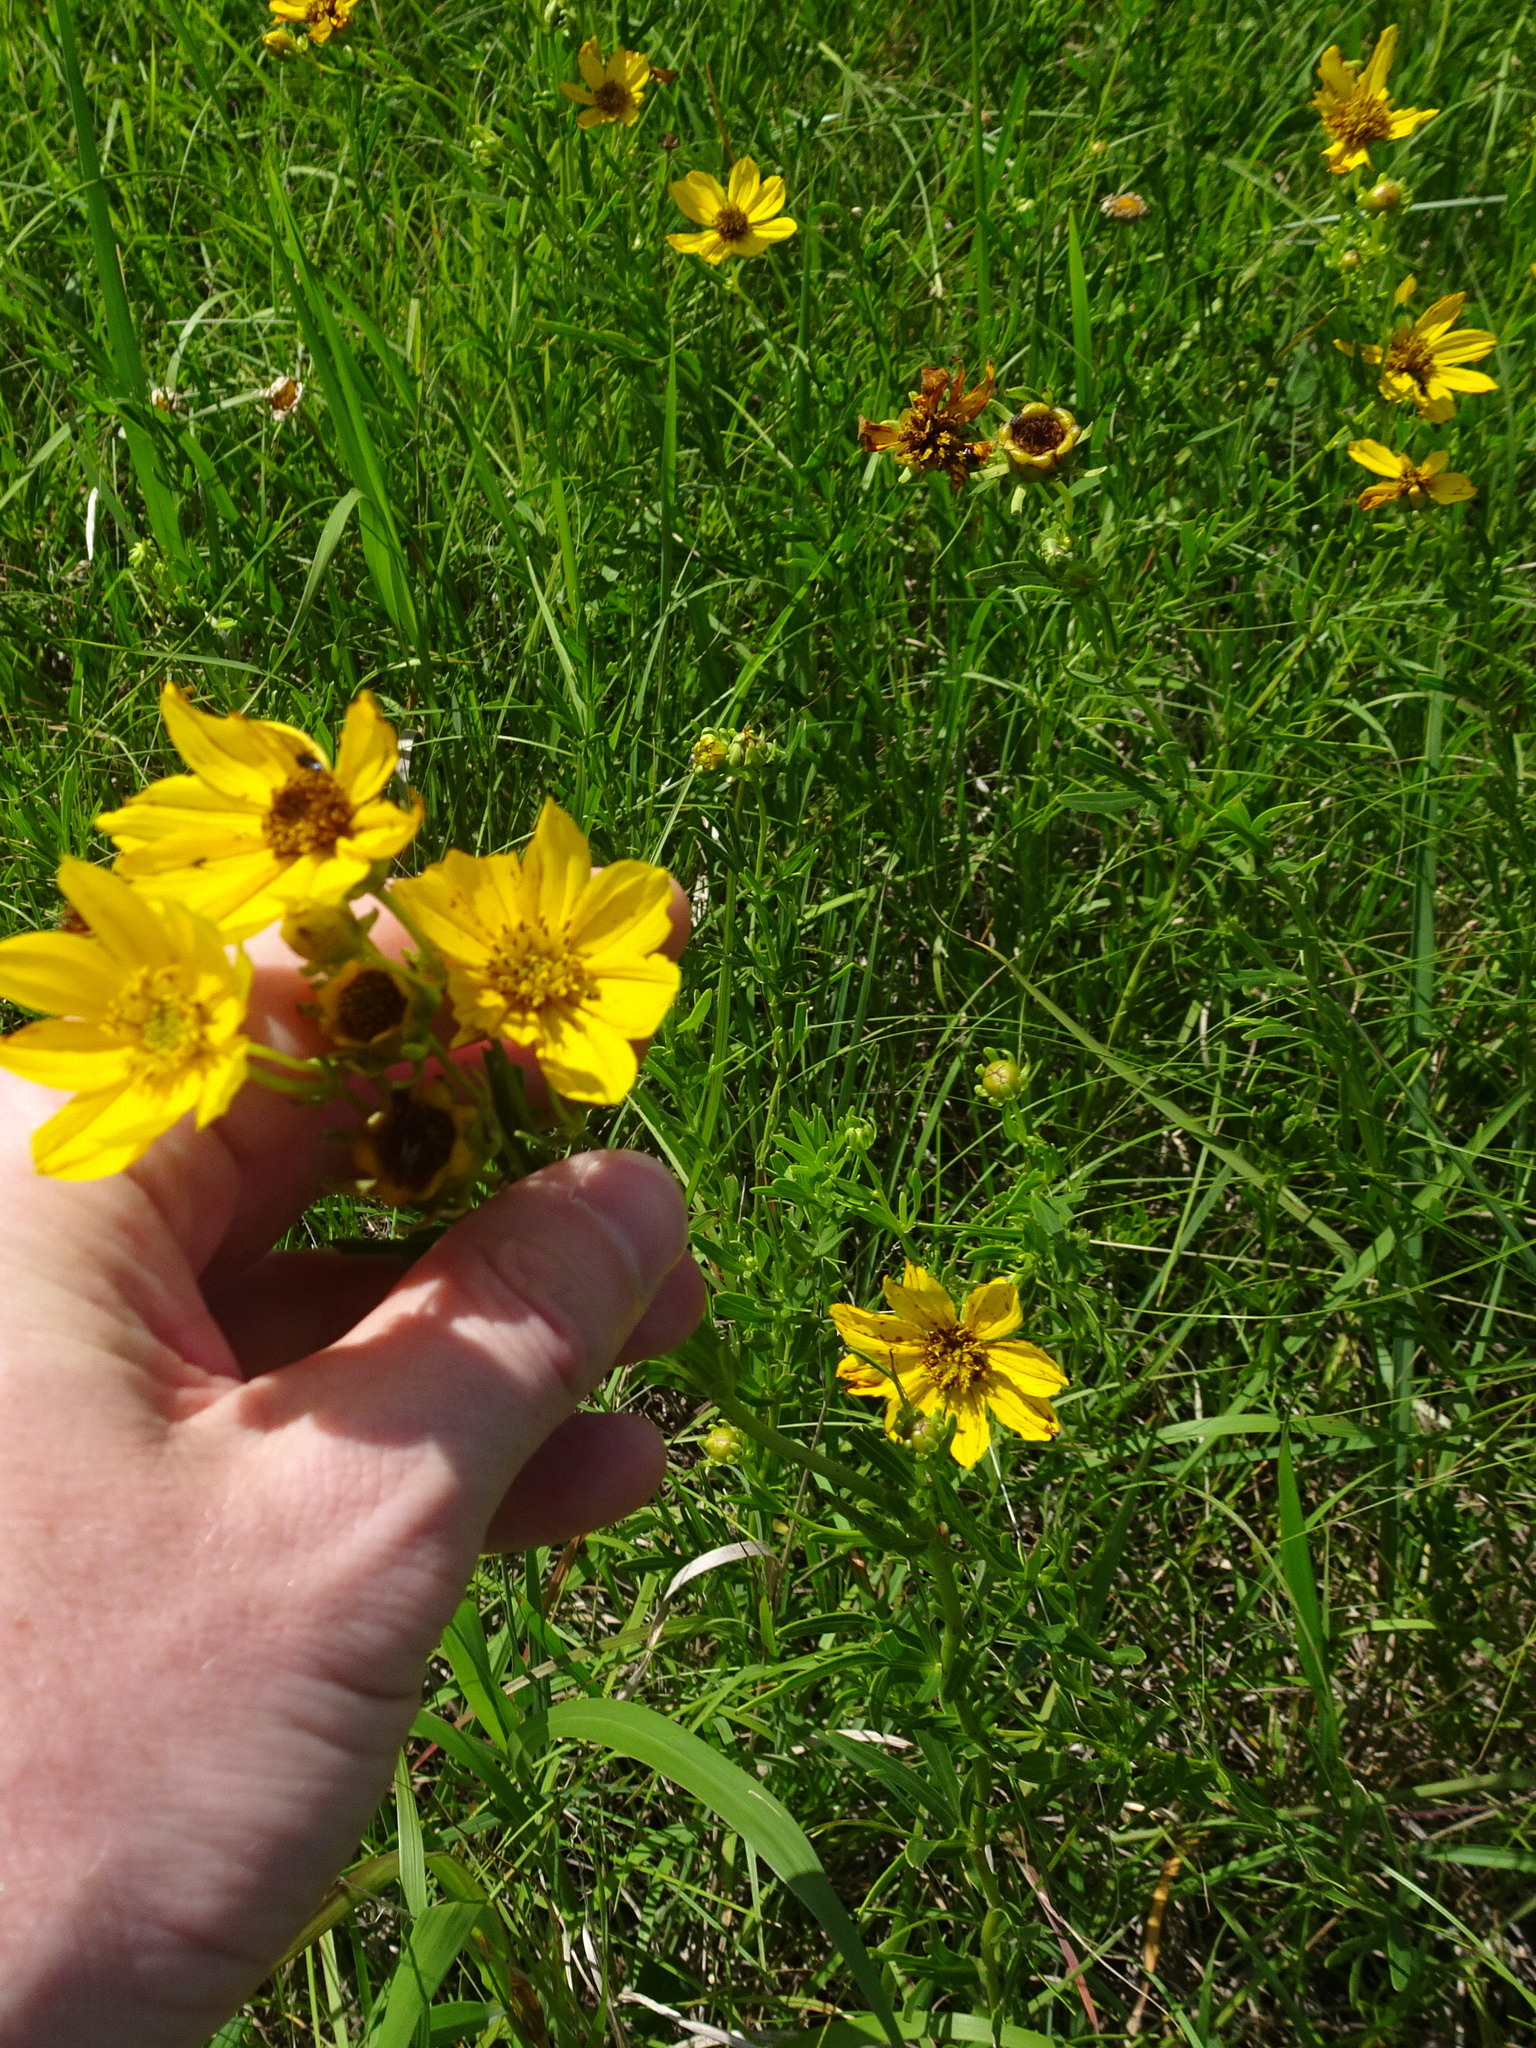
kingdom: Plantae
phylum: Tracheophyta
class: Magnoliopsida
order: Asterales
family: Asteraceae
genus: Coreopsis
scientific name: Coreopsis palmata
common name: Prairie coreopsis
